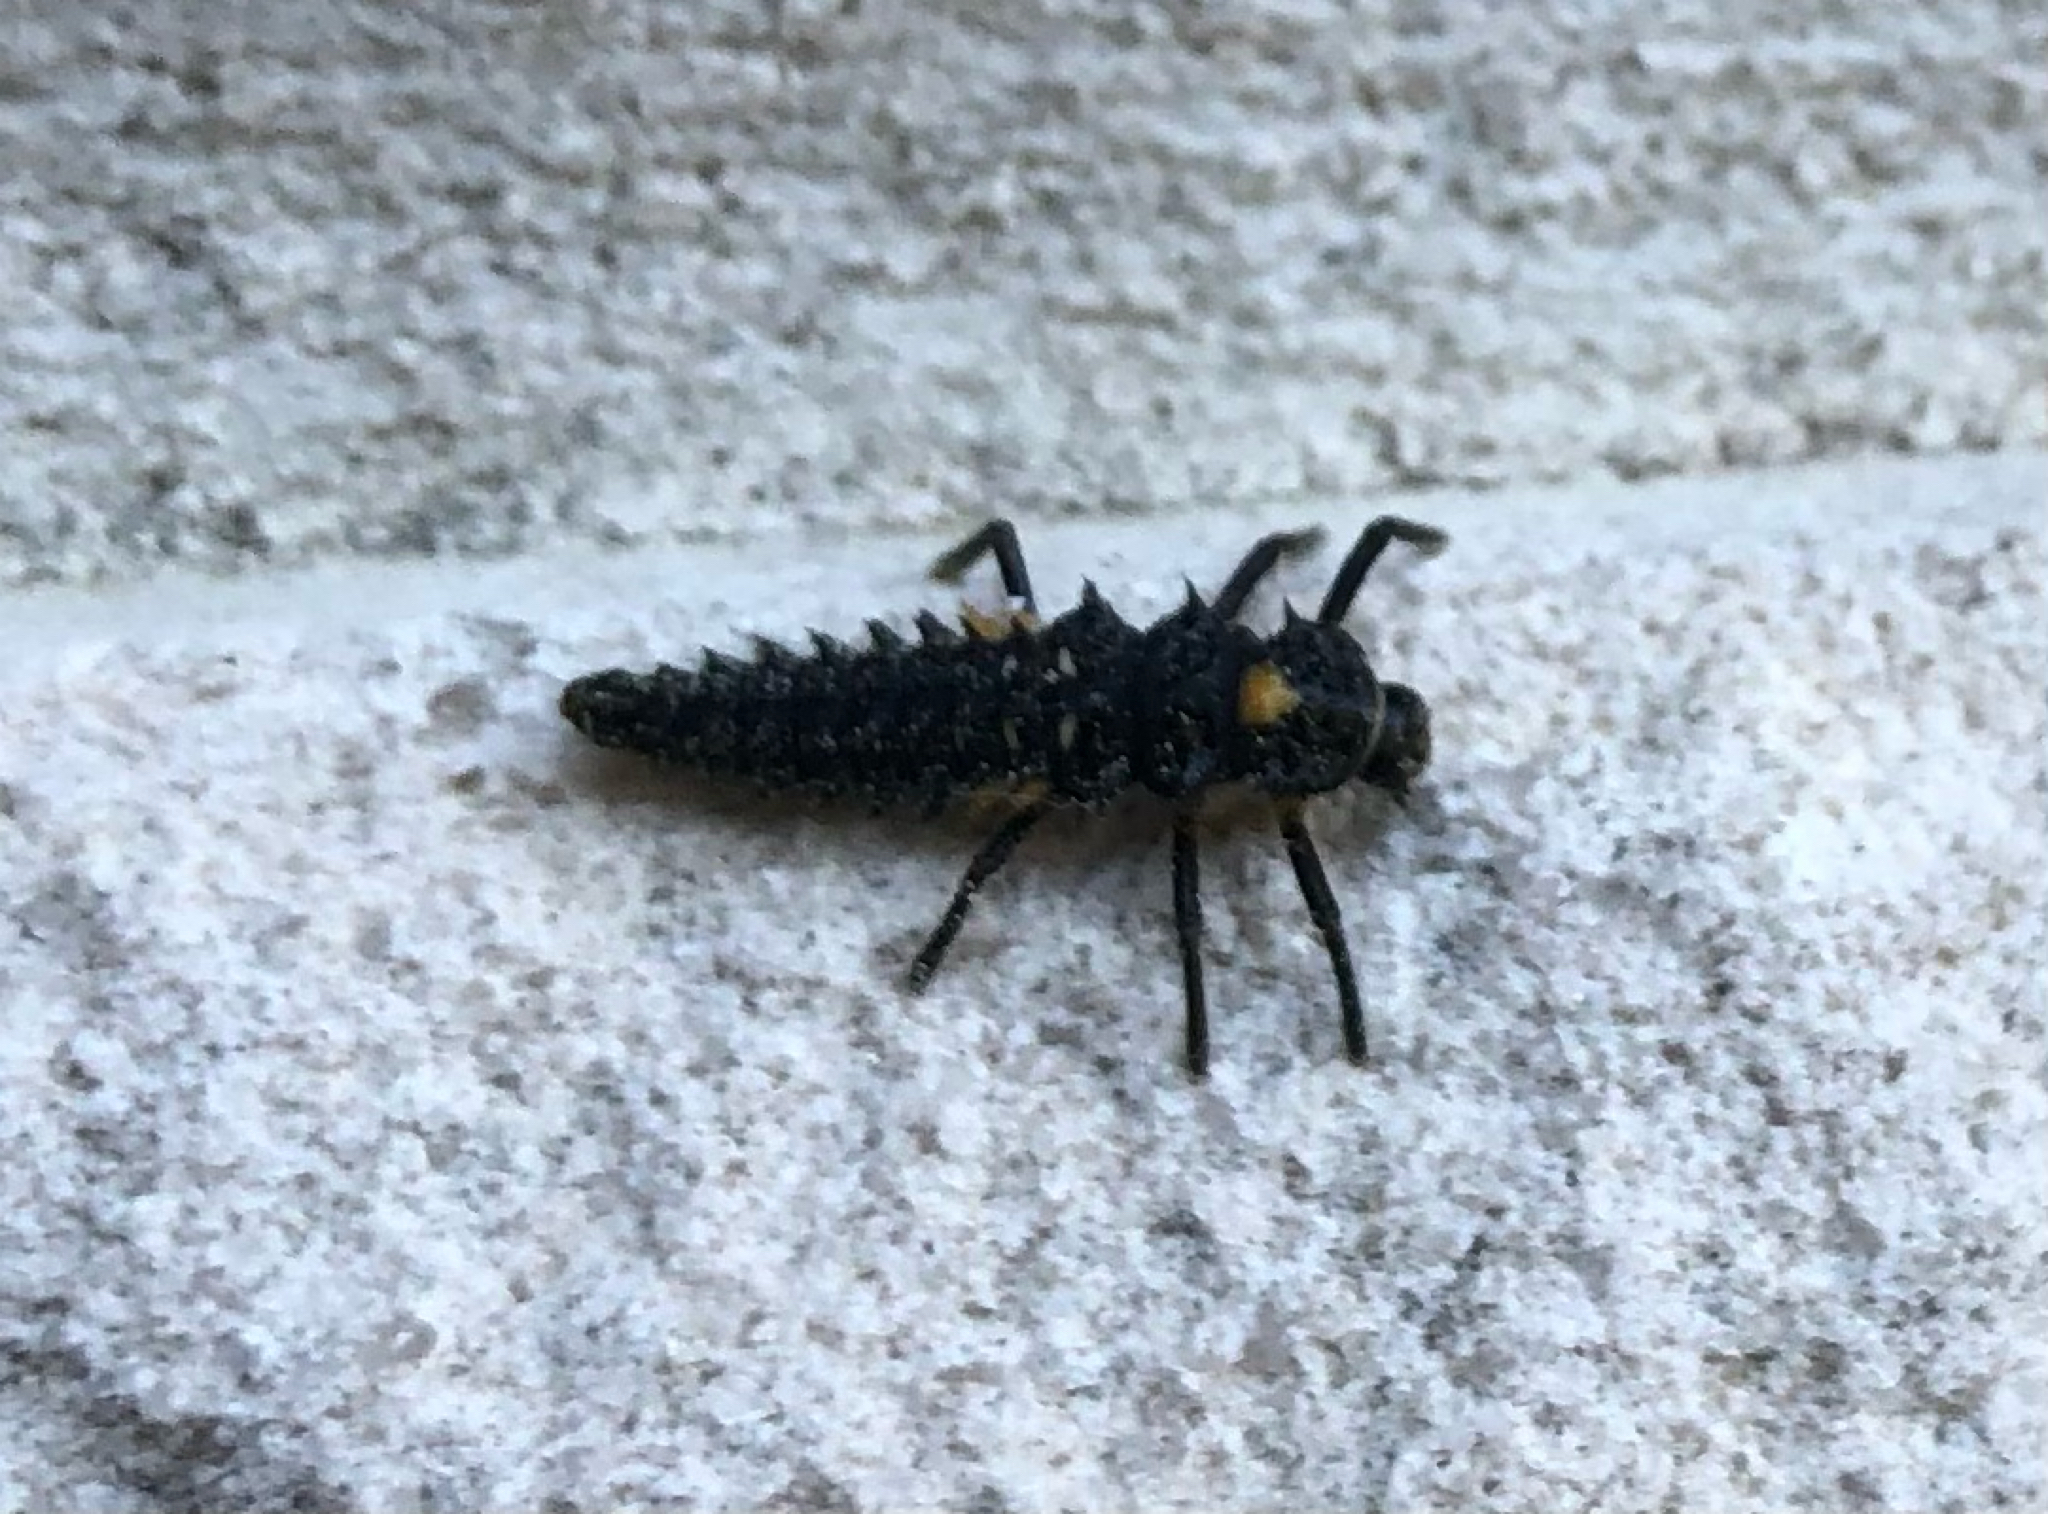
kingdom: Animalia
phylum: Arthropoda
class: Insecta
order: Coleoptera
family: Coccinellidae
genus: Anatis
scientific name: Anatis ocellata
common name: Eyed ladybird
